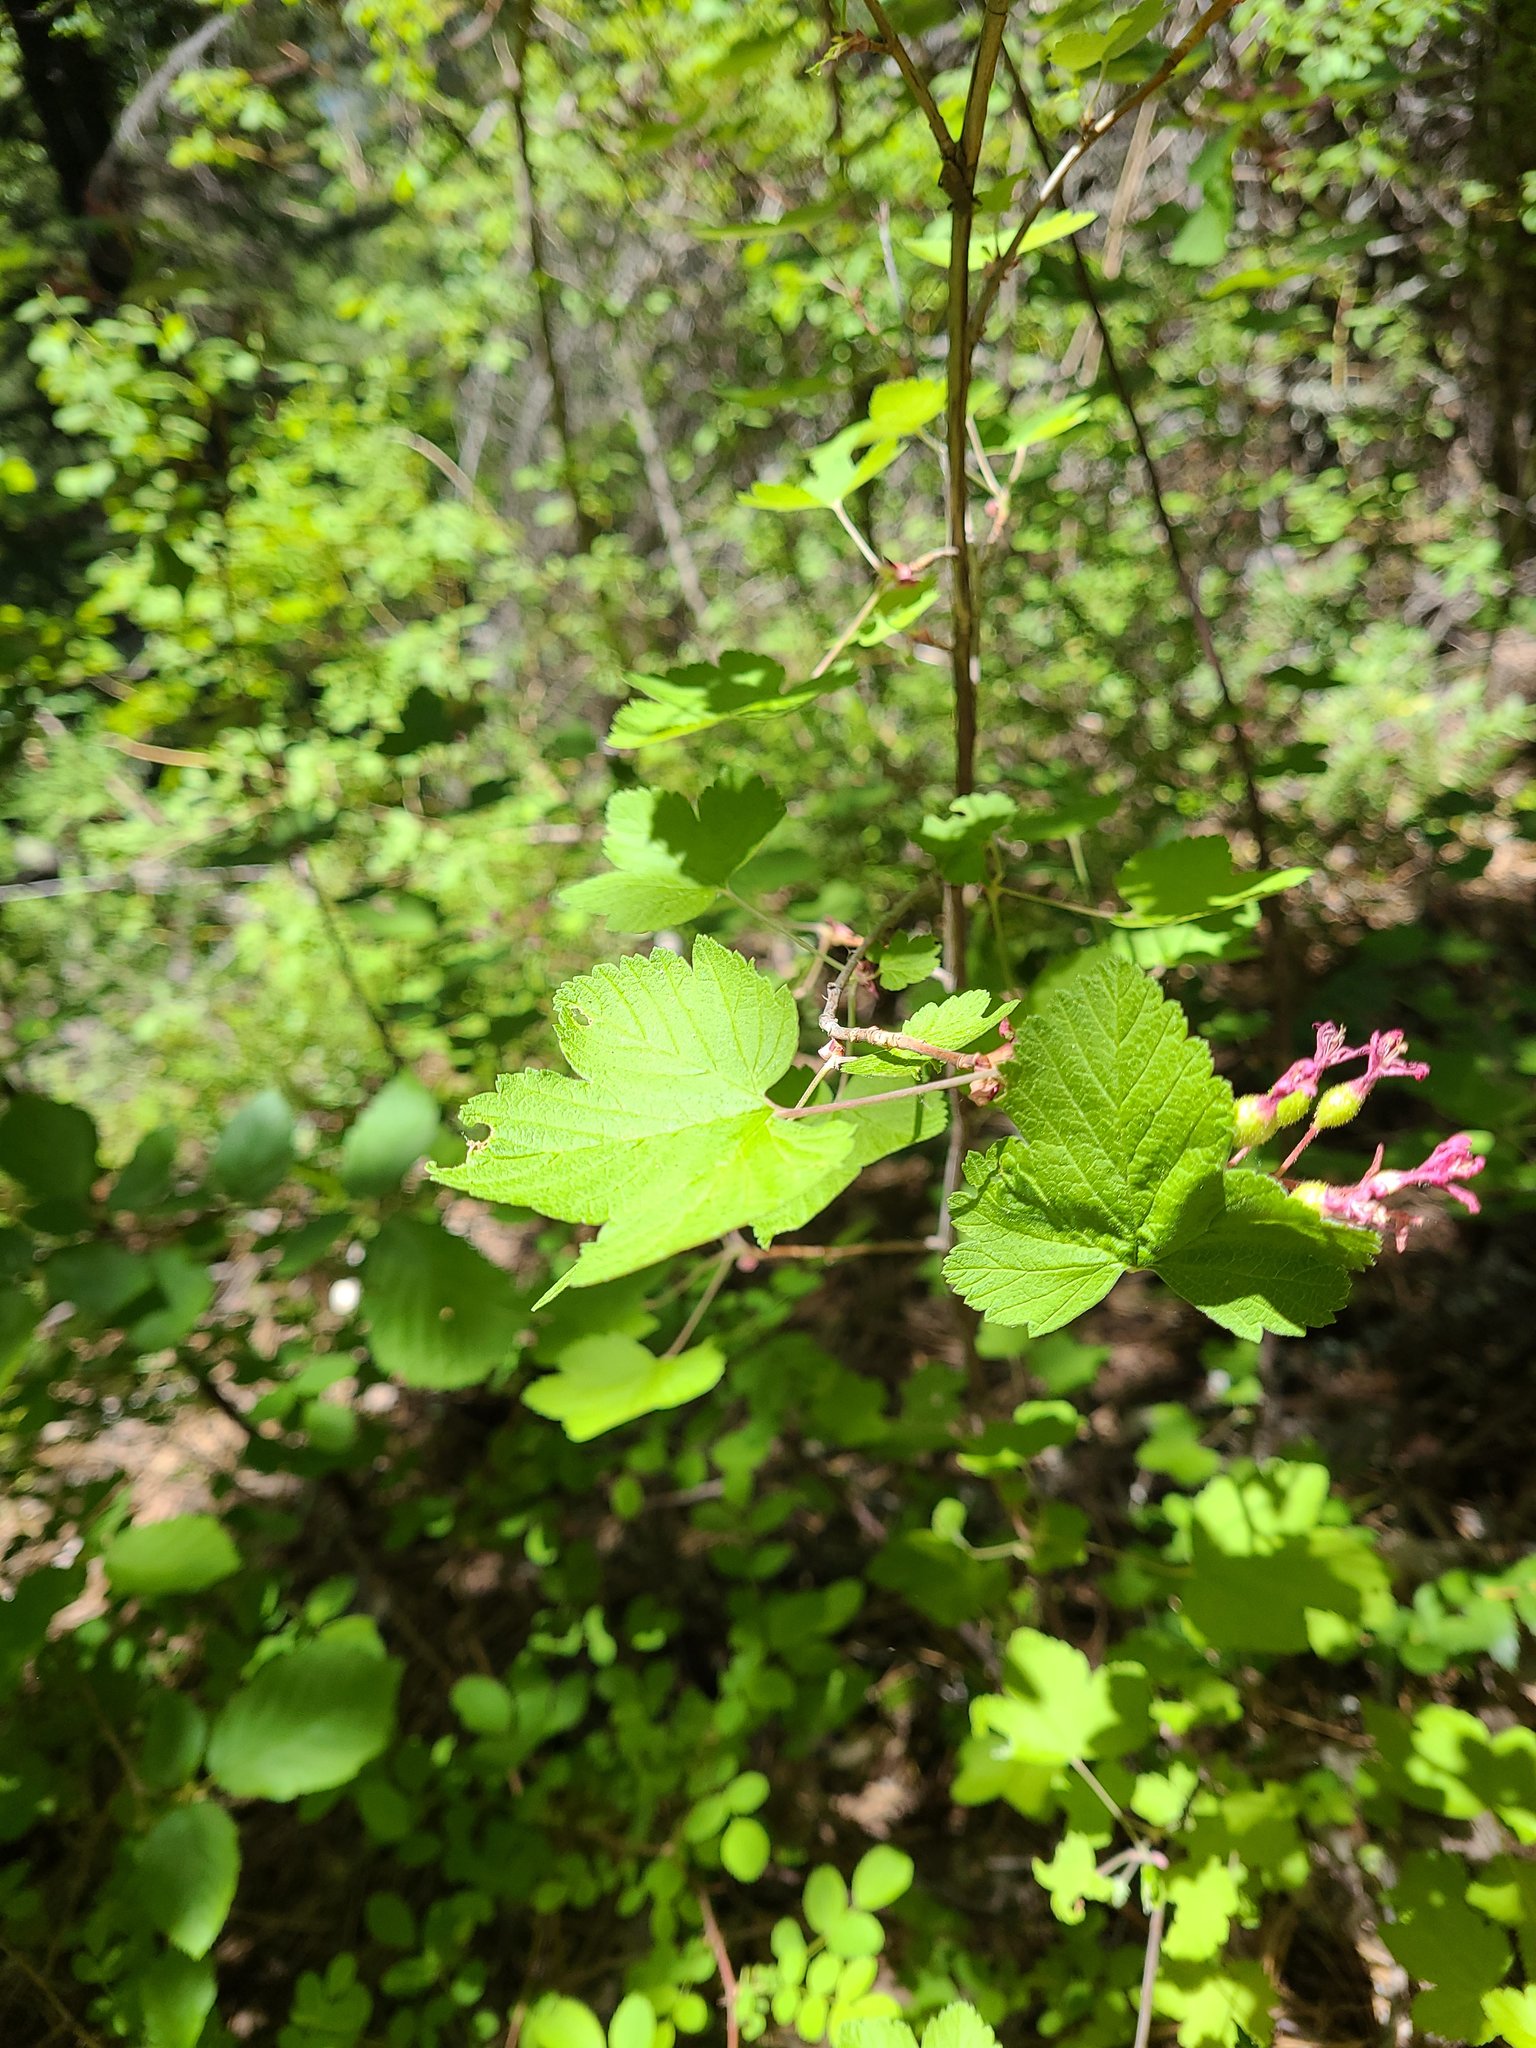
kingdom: Plantae
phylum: Tracheophyta
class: Magnoliopsida
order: Saxifragales
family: Grossulariaceae
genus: Ribes
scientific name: Ribes sanguineum
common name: Flowering currant
